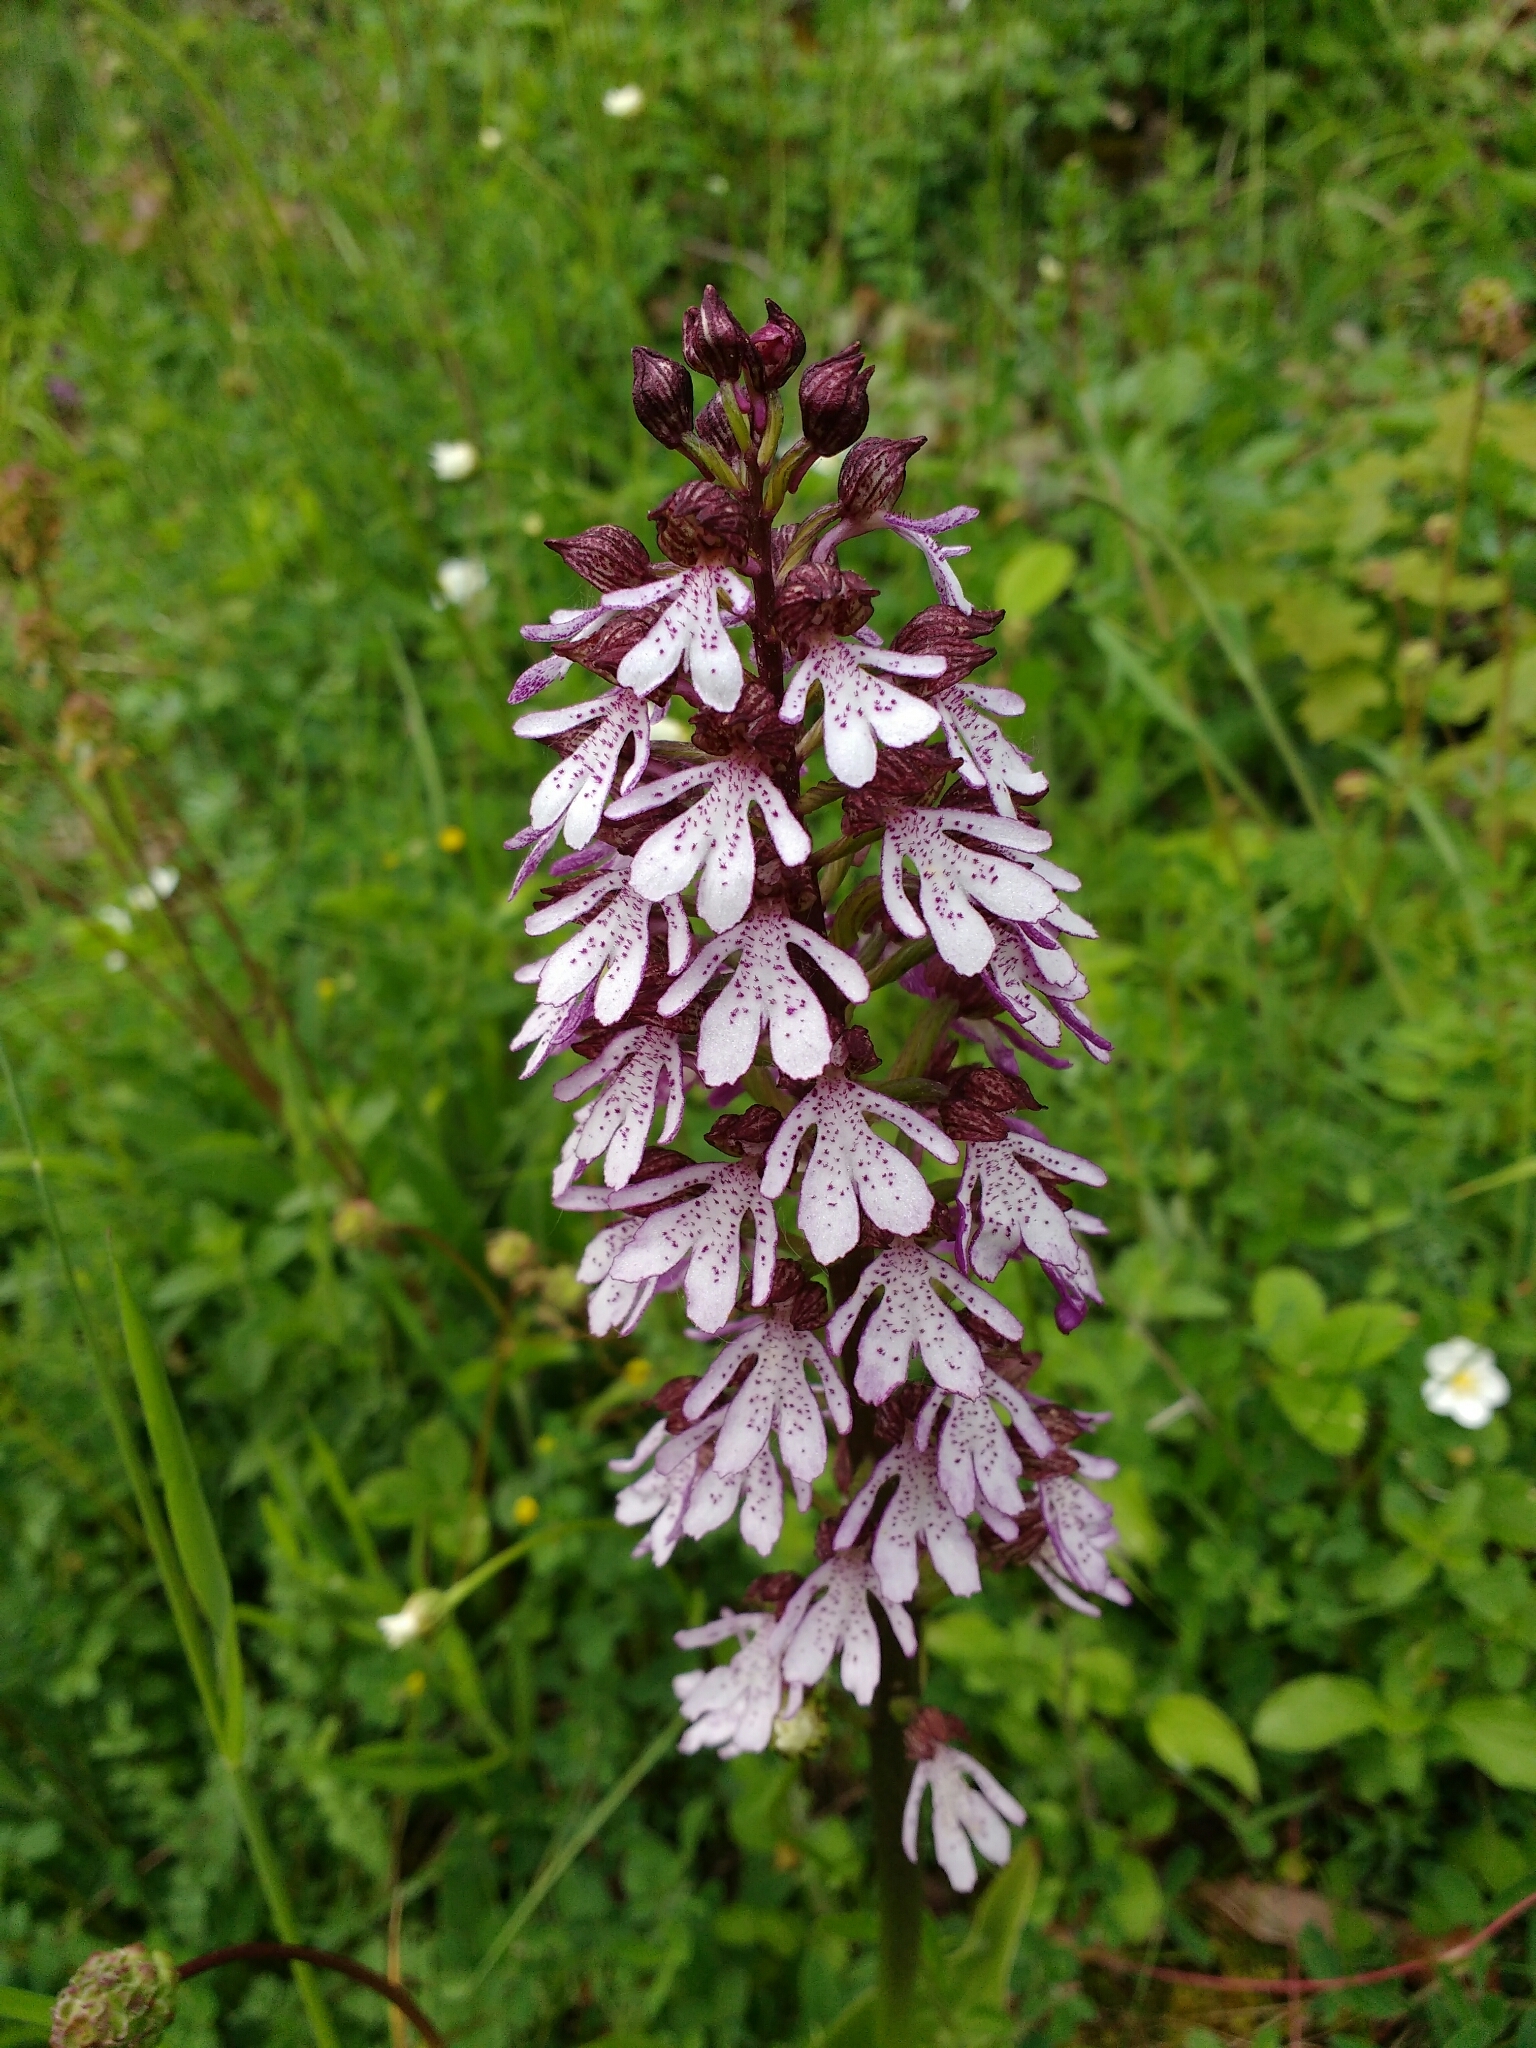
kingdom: Plantae
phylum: Tracheophyta
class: Liliopsida
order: Asparagales
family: Orchidaceae
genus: Orchis
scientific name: Orchis purpurea
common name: Lady orchid
